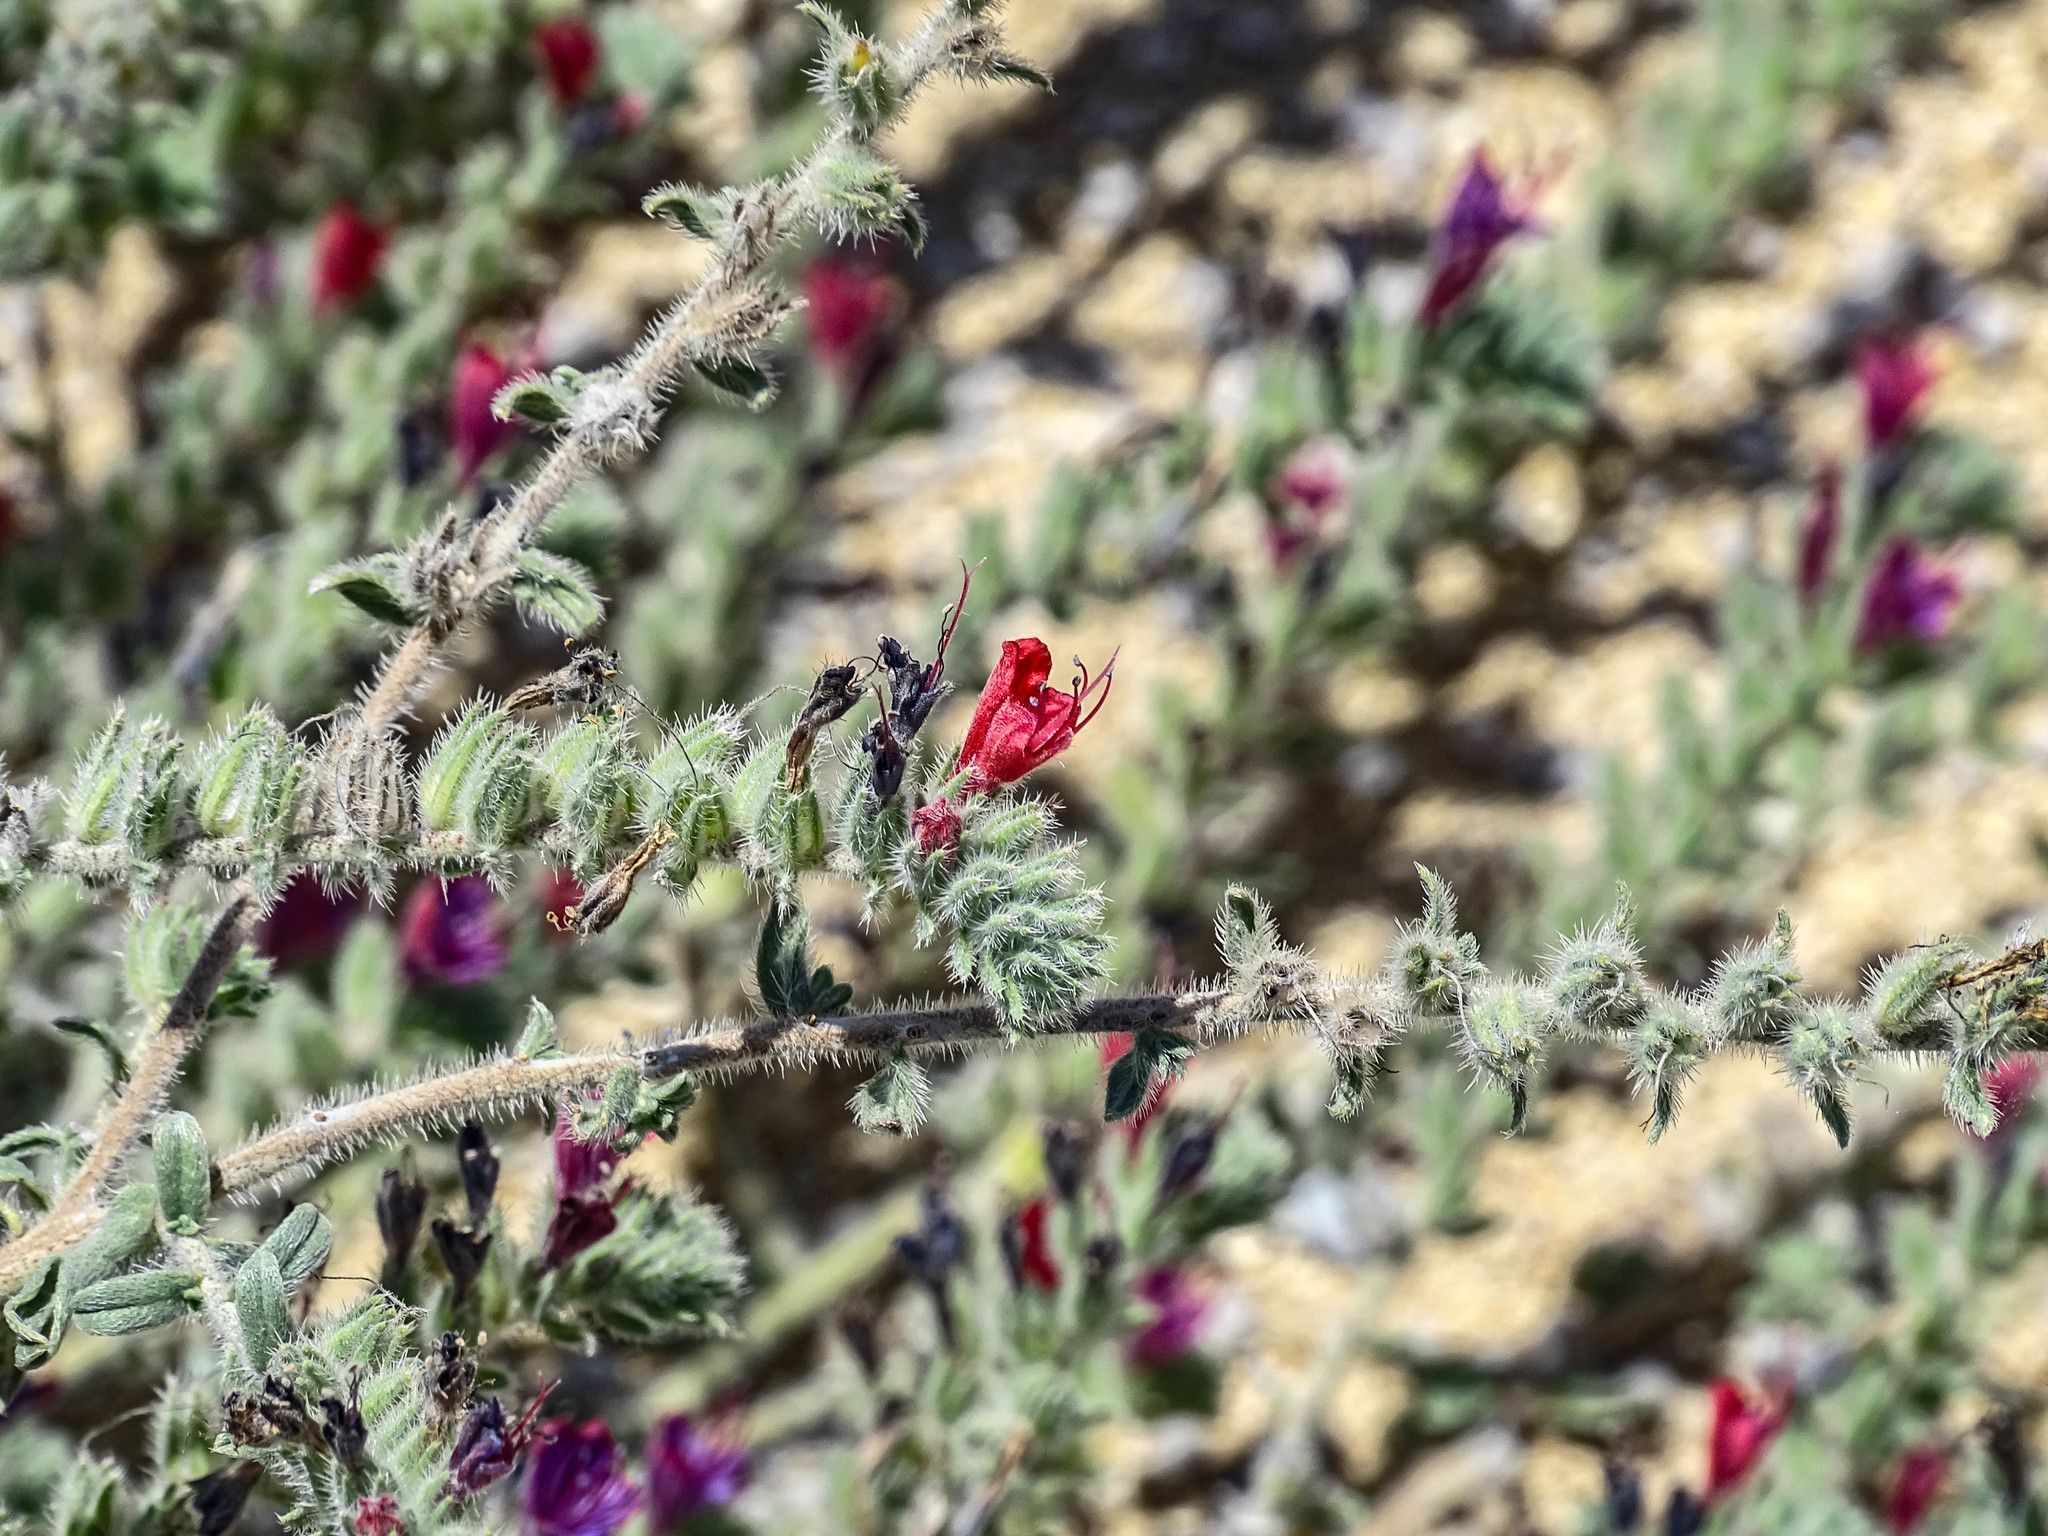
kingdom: Plantae
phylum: Tracheophyta
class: Magnoliopsida
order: Boraginales
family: Boraginaceae
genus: Echium
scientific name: Echium angustifolium
